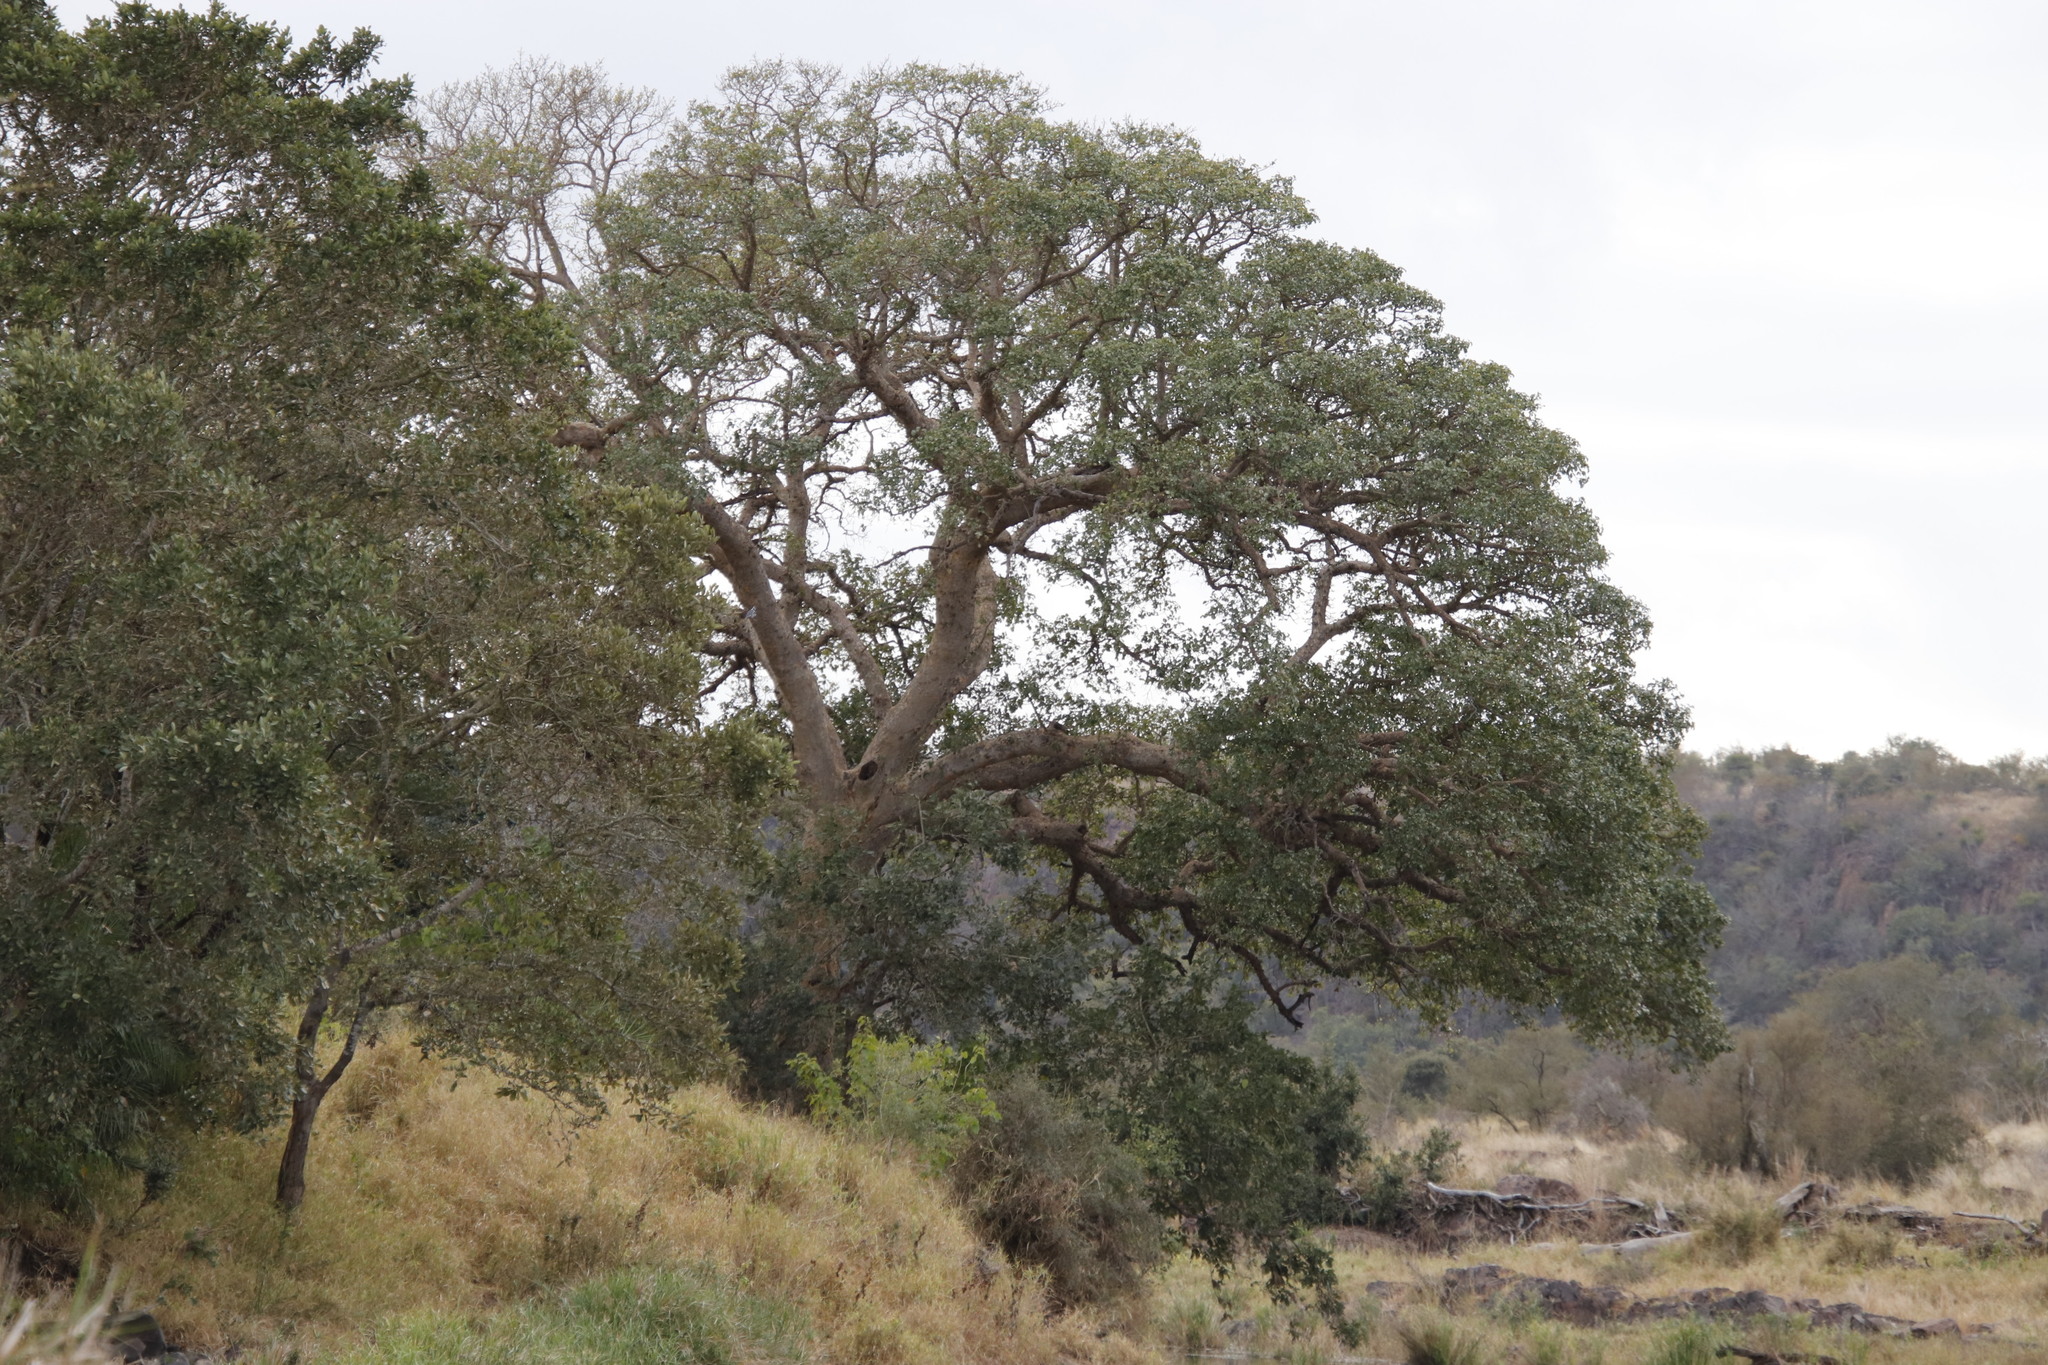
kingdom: Plantae
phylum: Tracheophyta
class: Magnoliopsida
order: Rosales
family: Moraceae
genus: Ficus
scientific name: Ficus sycomorus
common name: Sycomore
